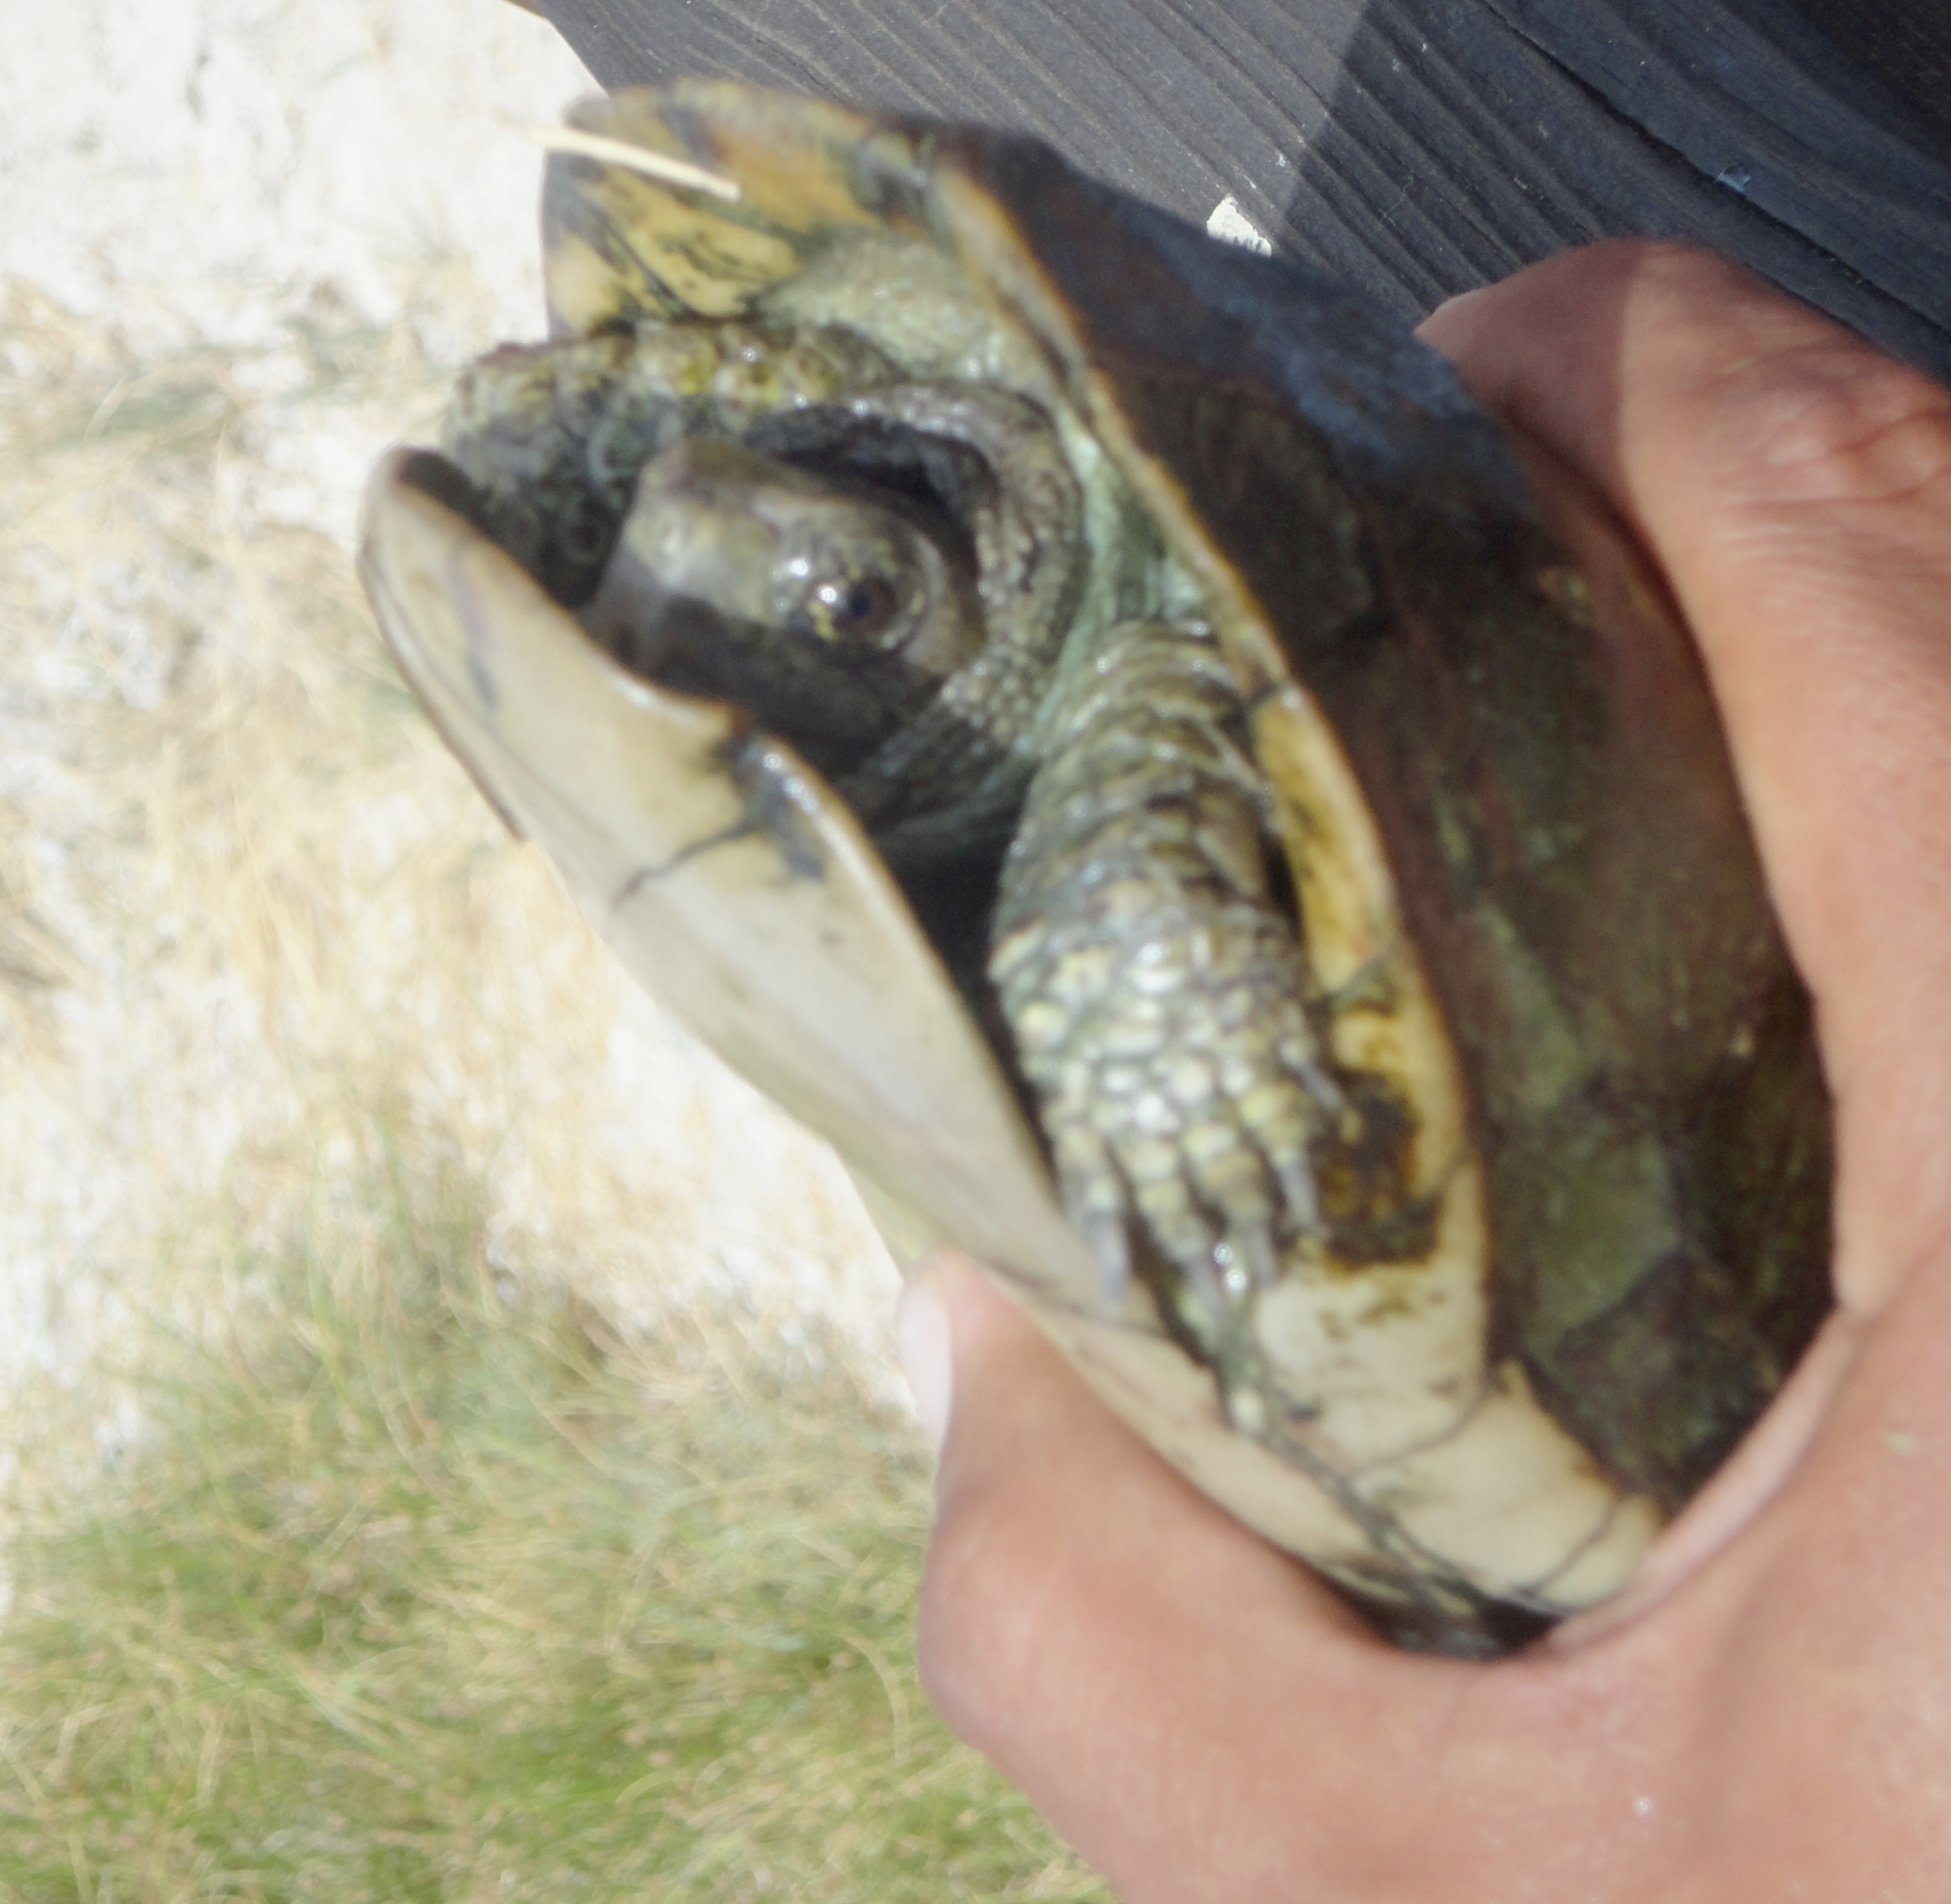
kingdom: Animalia
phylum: Chordata
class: Testudines
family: Emydidae
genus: Terrapene
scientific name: Terrapene coahuila
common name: Coahuilan box turtle
